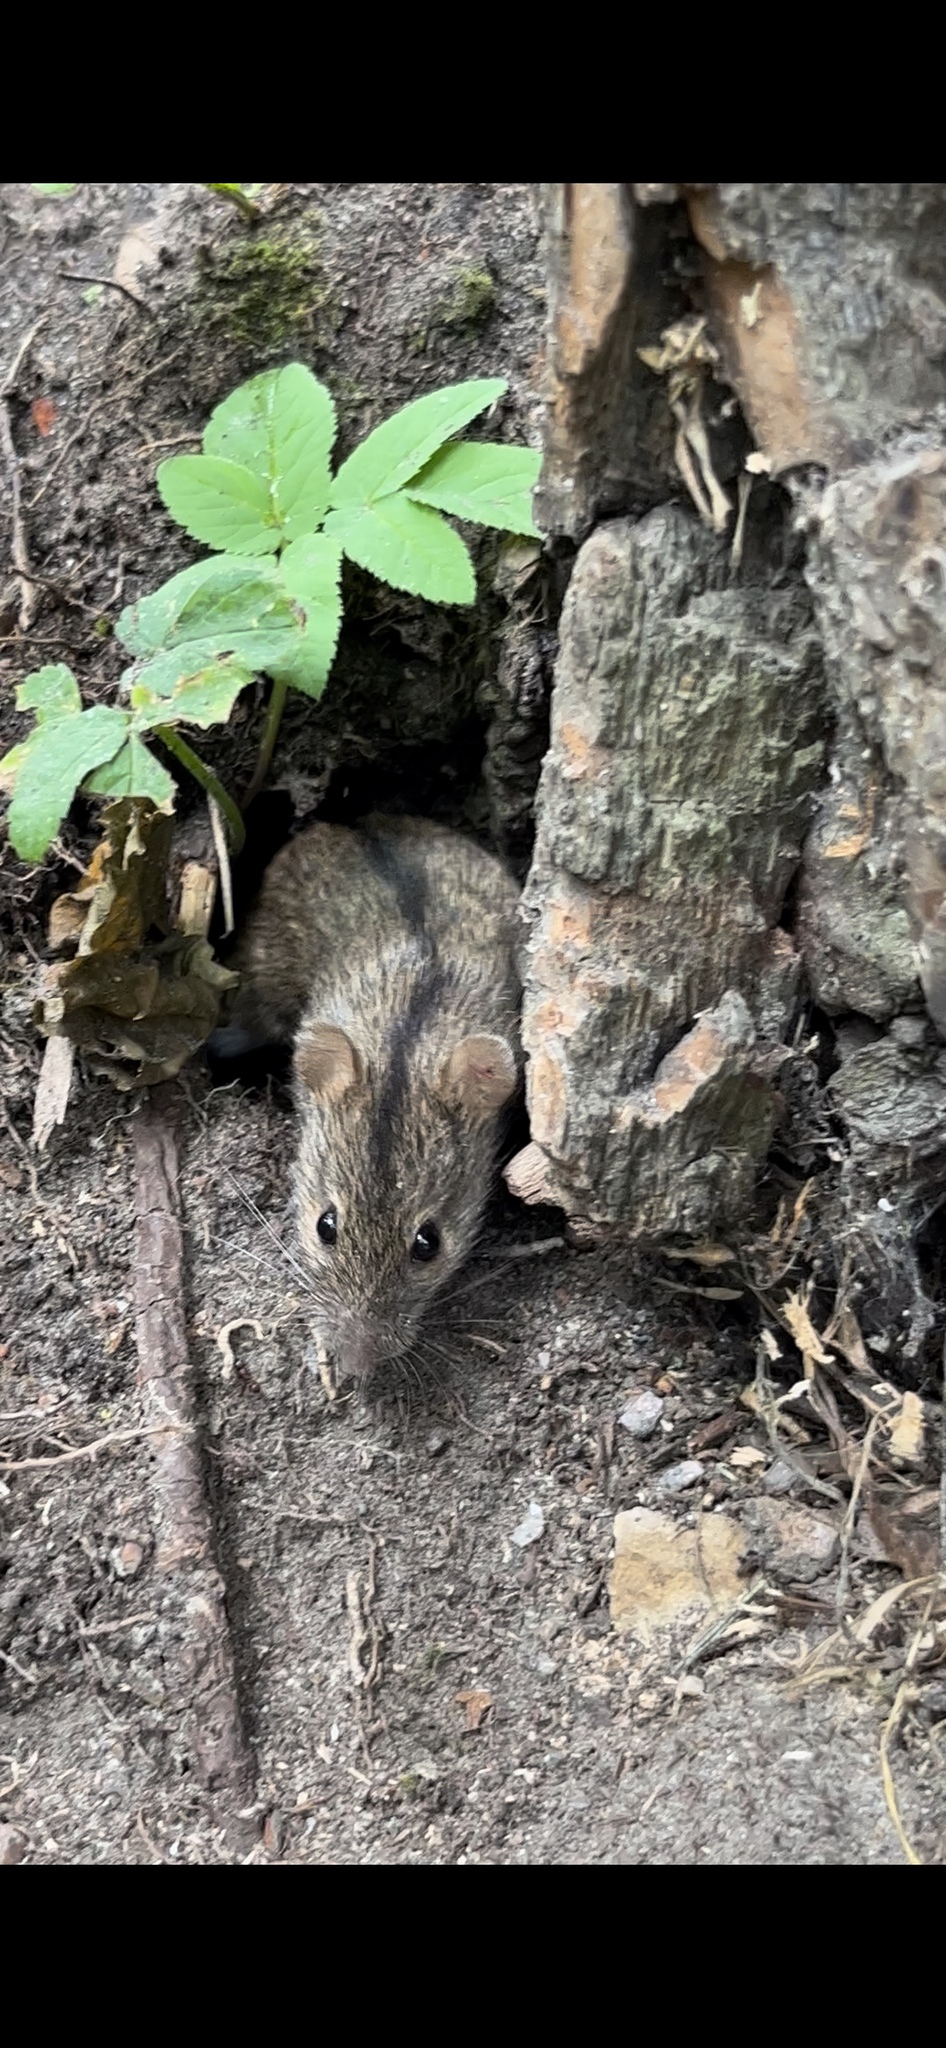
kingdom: Animalia
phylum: Chordata
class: Mammalia
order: Rodentia
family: Muridae
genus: Apodemus
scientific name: Apodemus agrarius
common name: Striped field mouse
